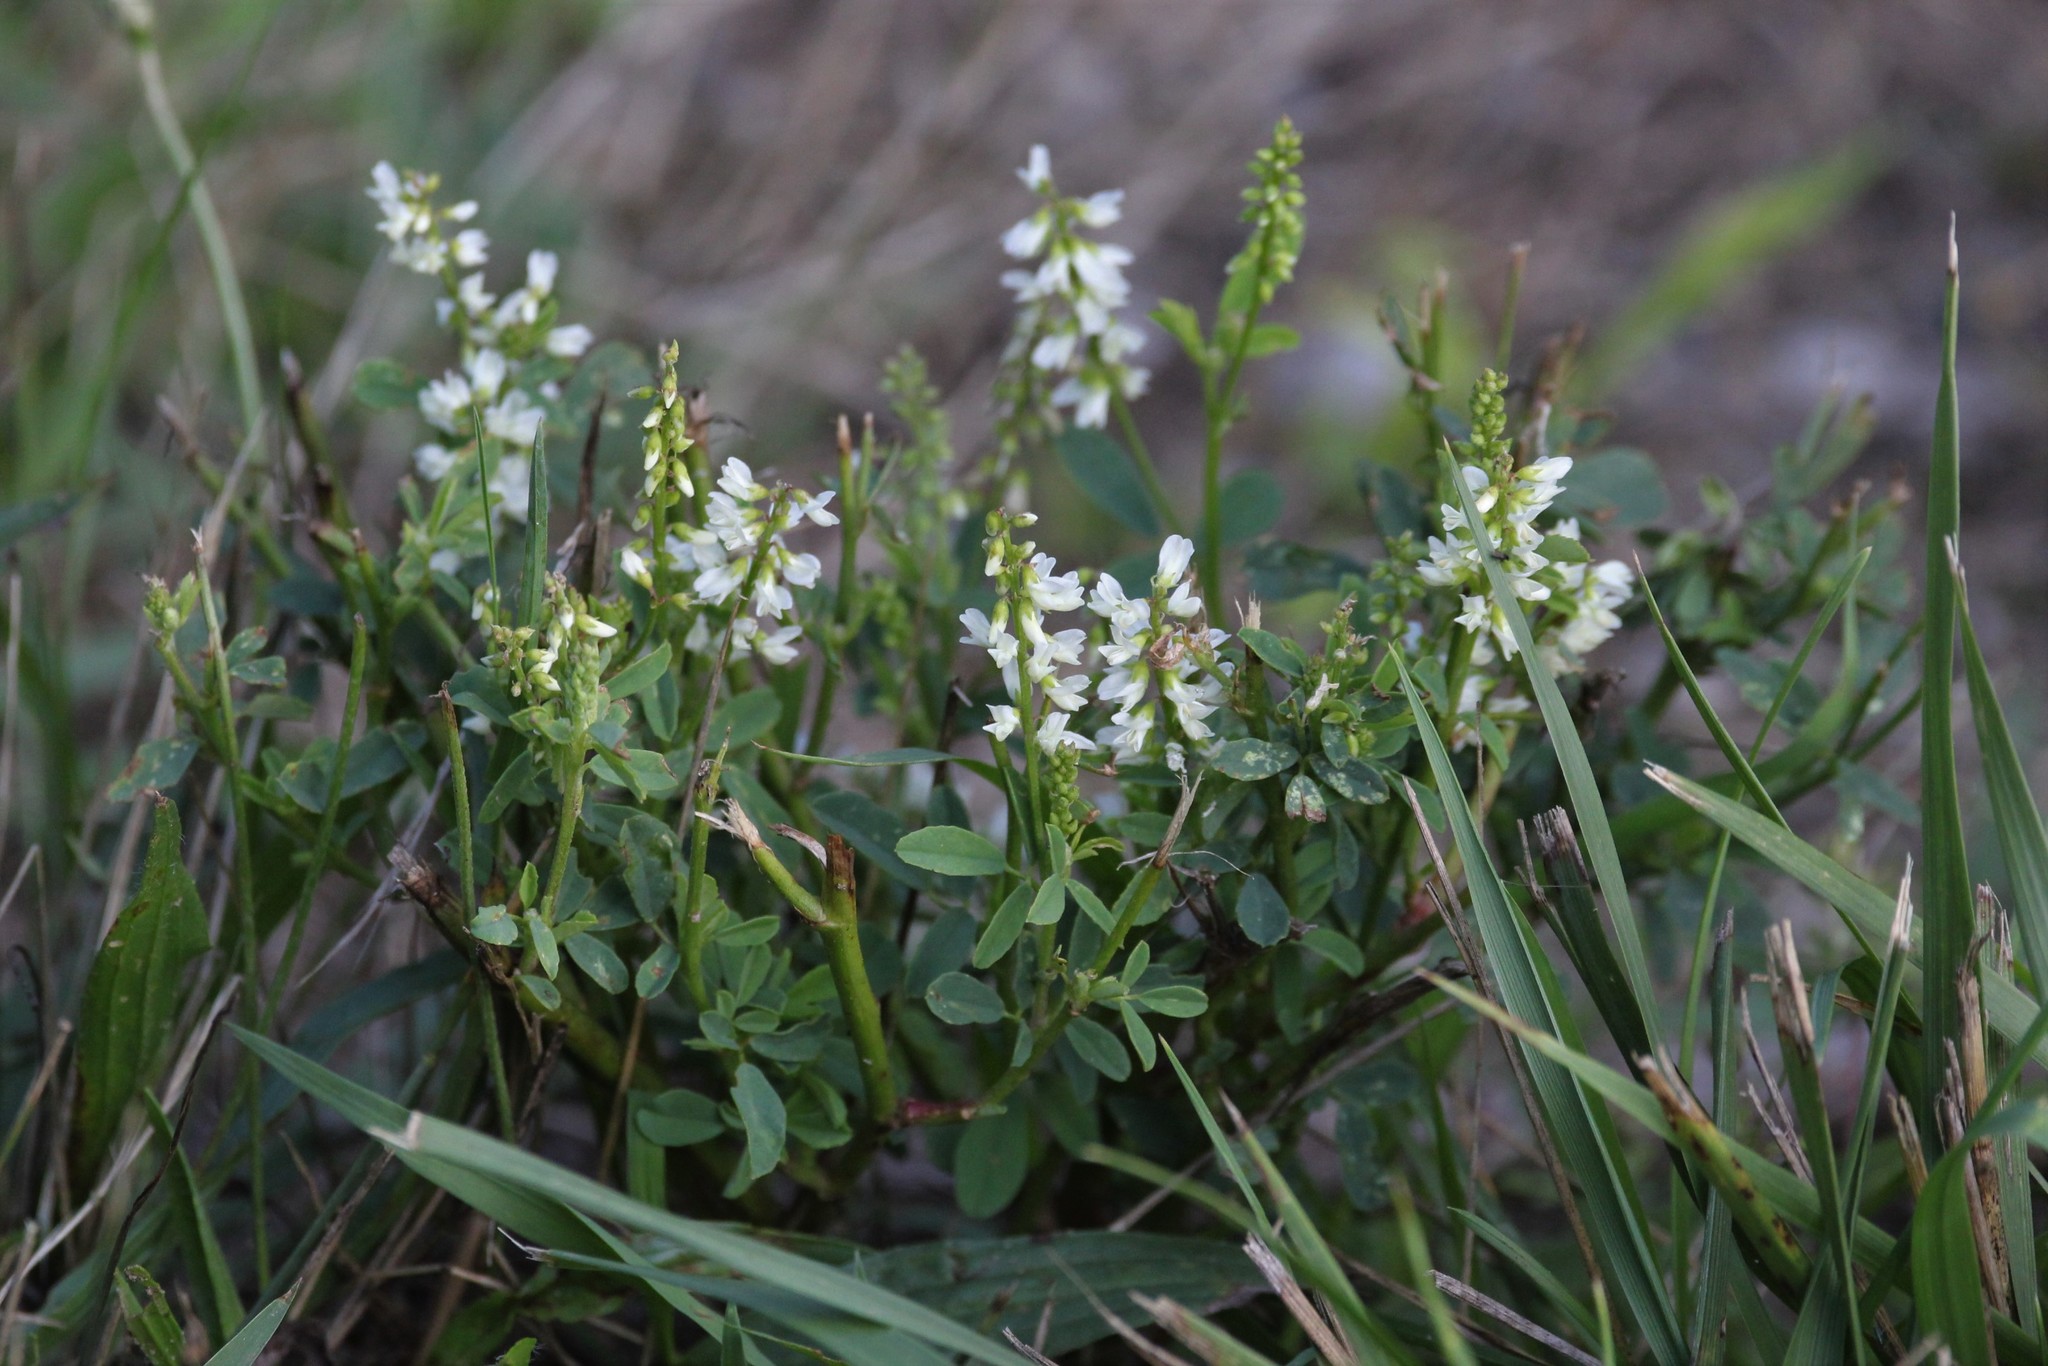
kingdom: Plantae
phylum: Tracheophyta
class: Magnoliopsida
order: Fabales
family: Fabaceae
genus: Melilotus
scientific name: Melilotus albus
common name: White melilot
